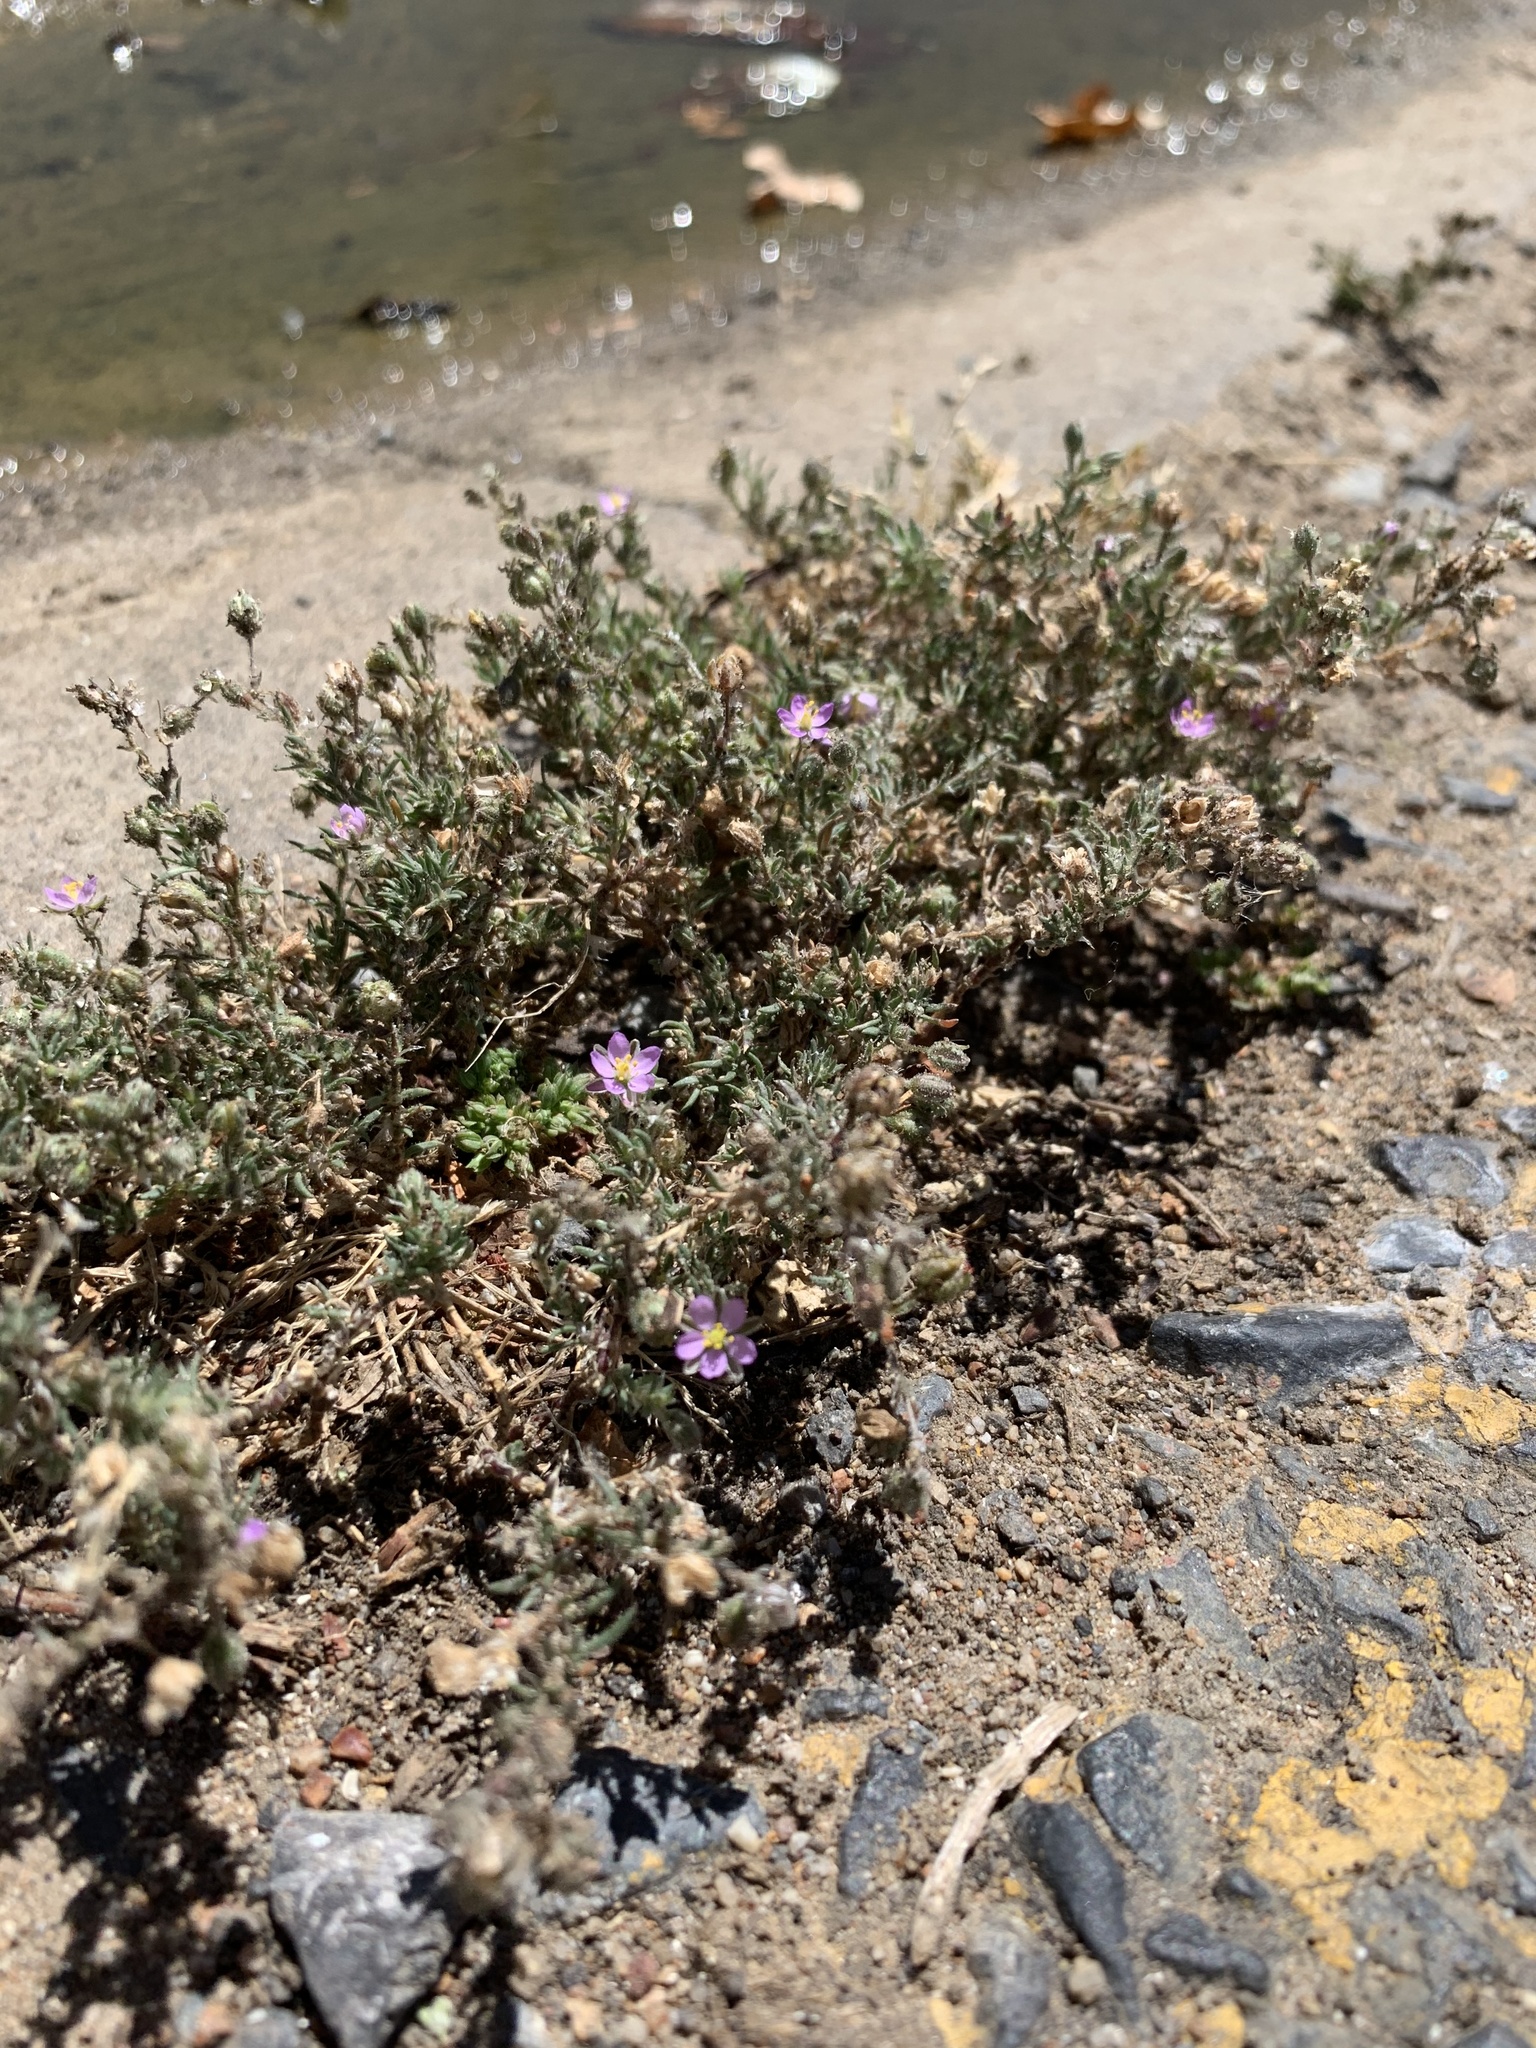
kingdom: Plantae
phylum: Tracheophyta
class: Magnoliopsida
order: Caryophyllales
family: Caryophyllaceae
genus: Spergularia
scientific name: Spergularia rubra
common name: Red sand-spurrey
